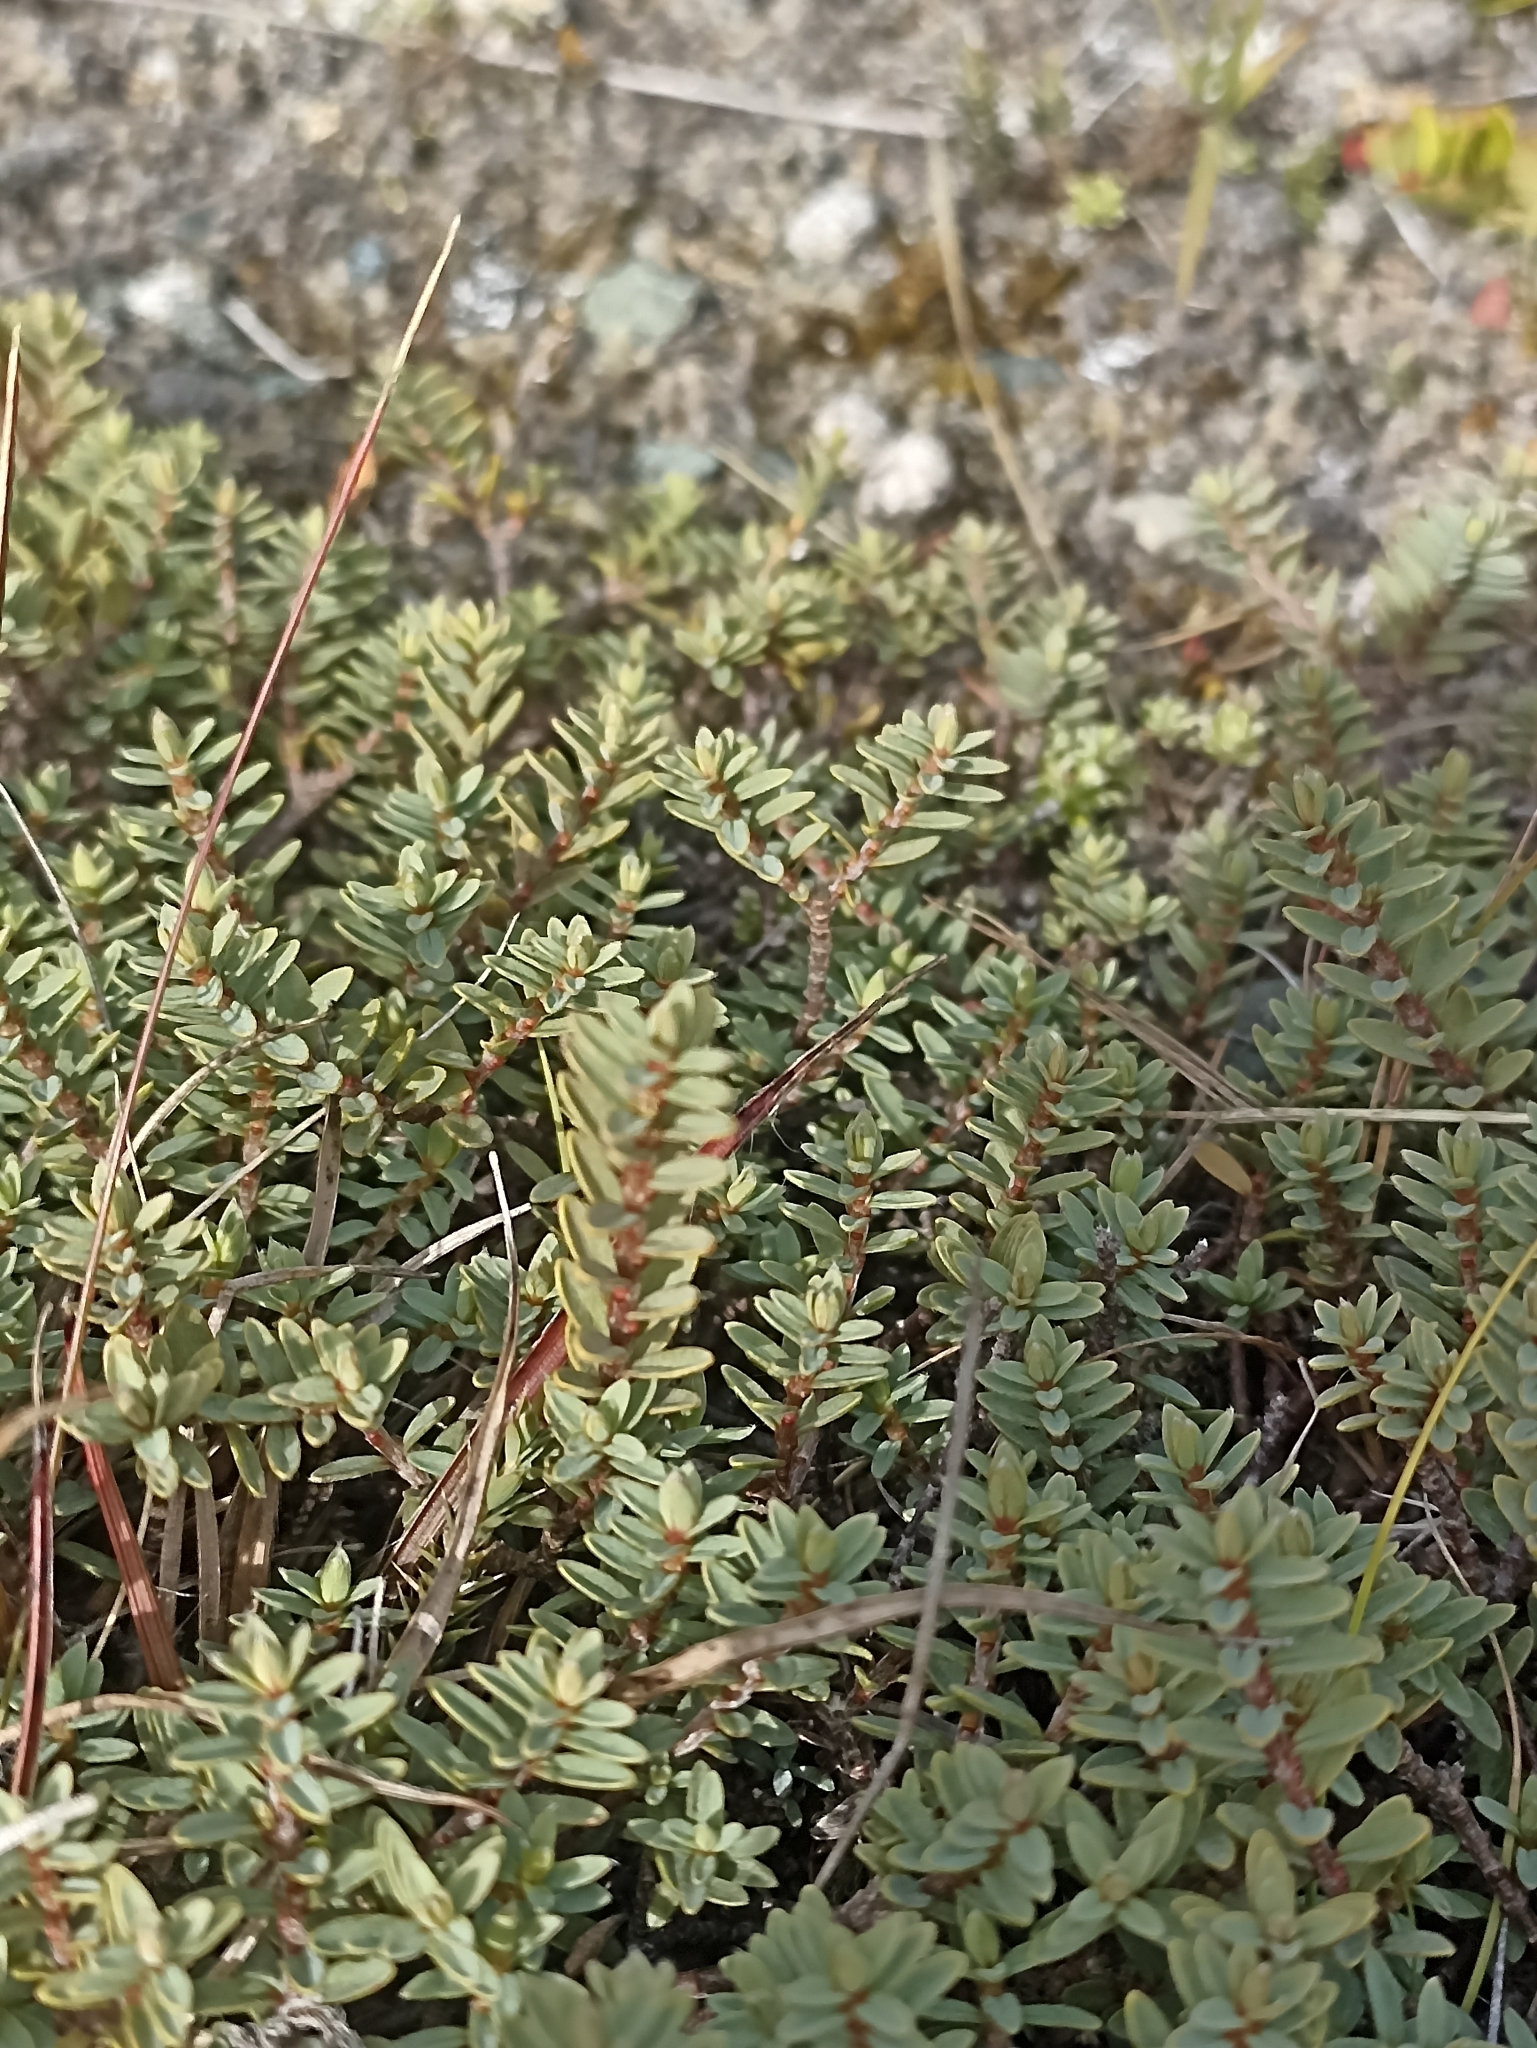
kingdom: Plantae
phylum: Tracheophyta
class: Magnoliopsida
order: Malvales
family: Thymelaeaceae
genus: Pimelea
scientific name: Pimelea prostrata
